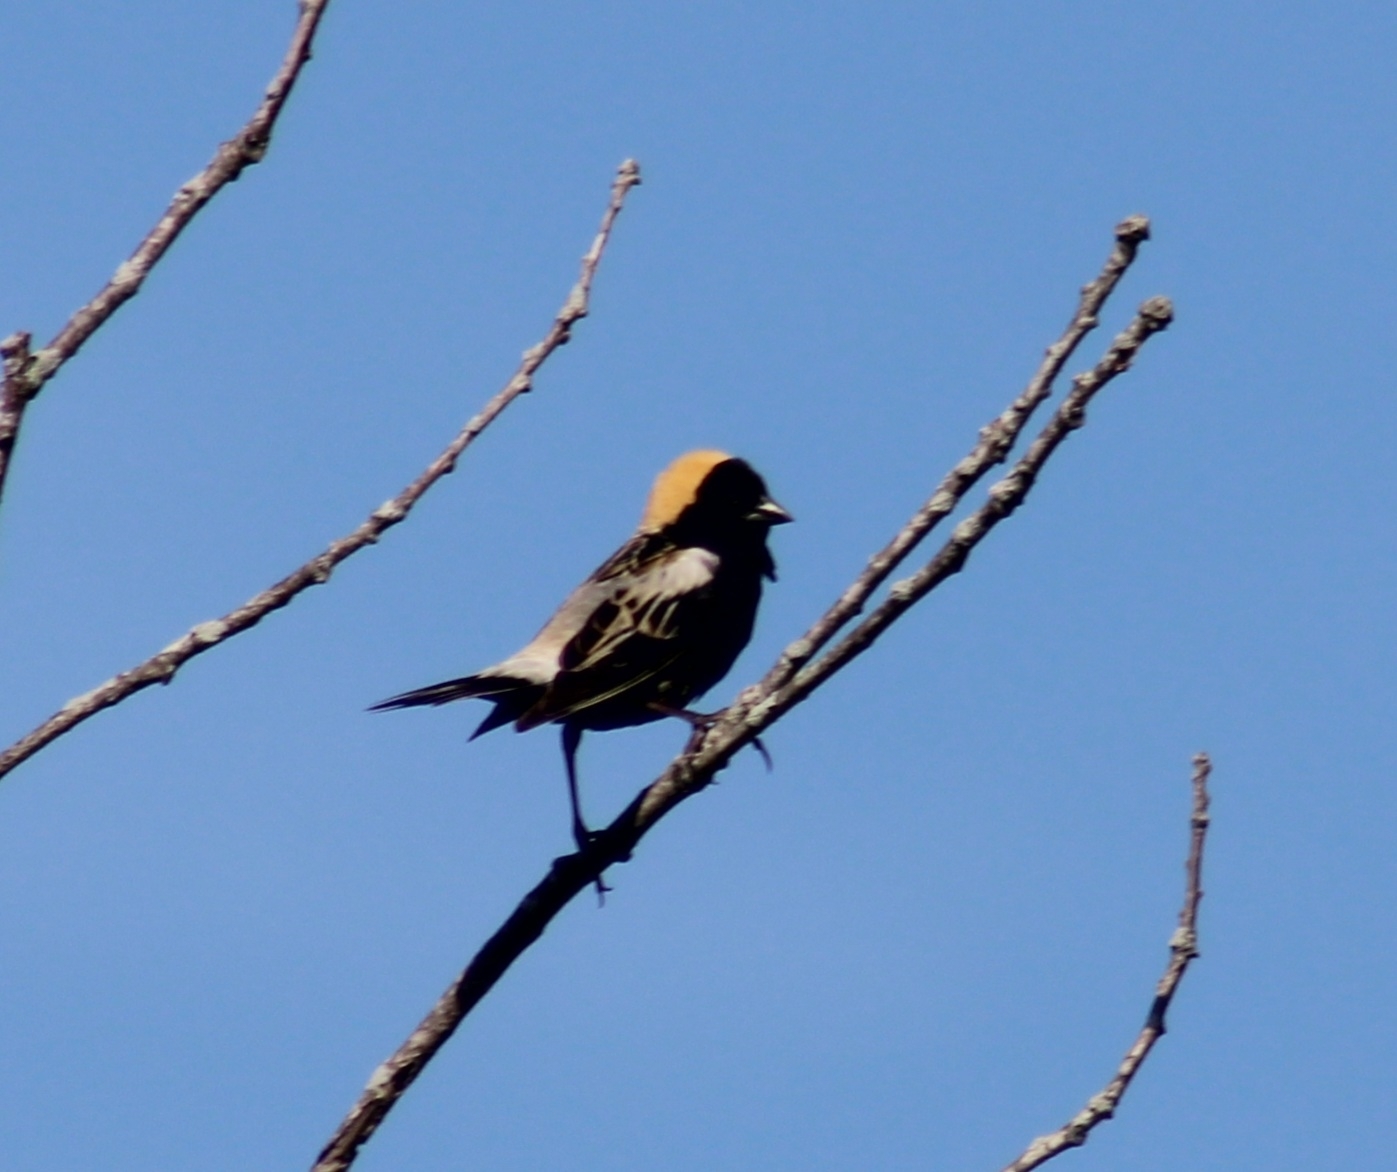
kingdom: Animalia
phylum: Chordata
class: Aves
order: Passeriformes
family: Icteridae
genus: Dolichonyx
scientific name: Dolichonyx oryzivorus
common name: Bobolink
